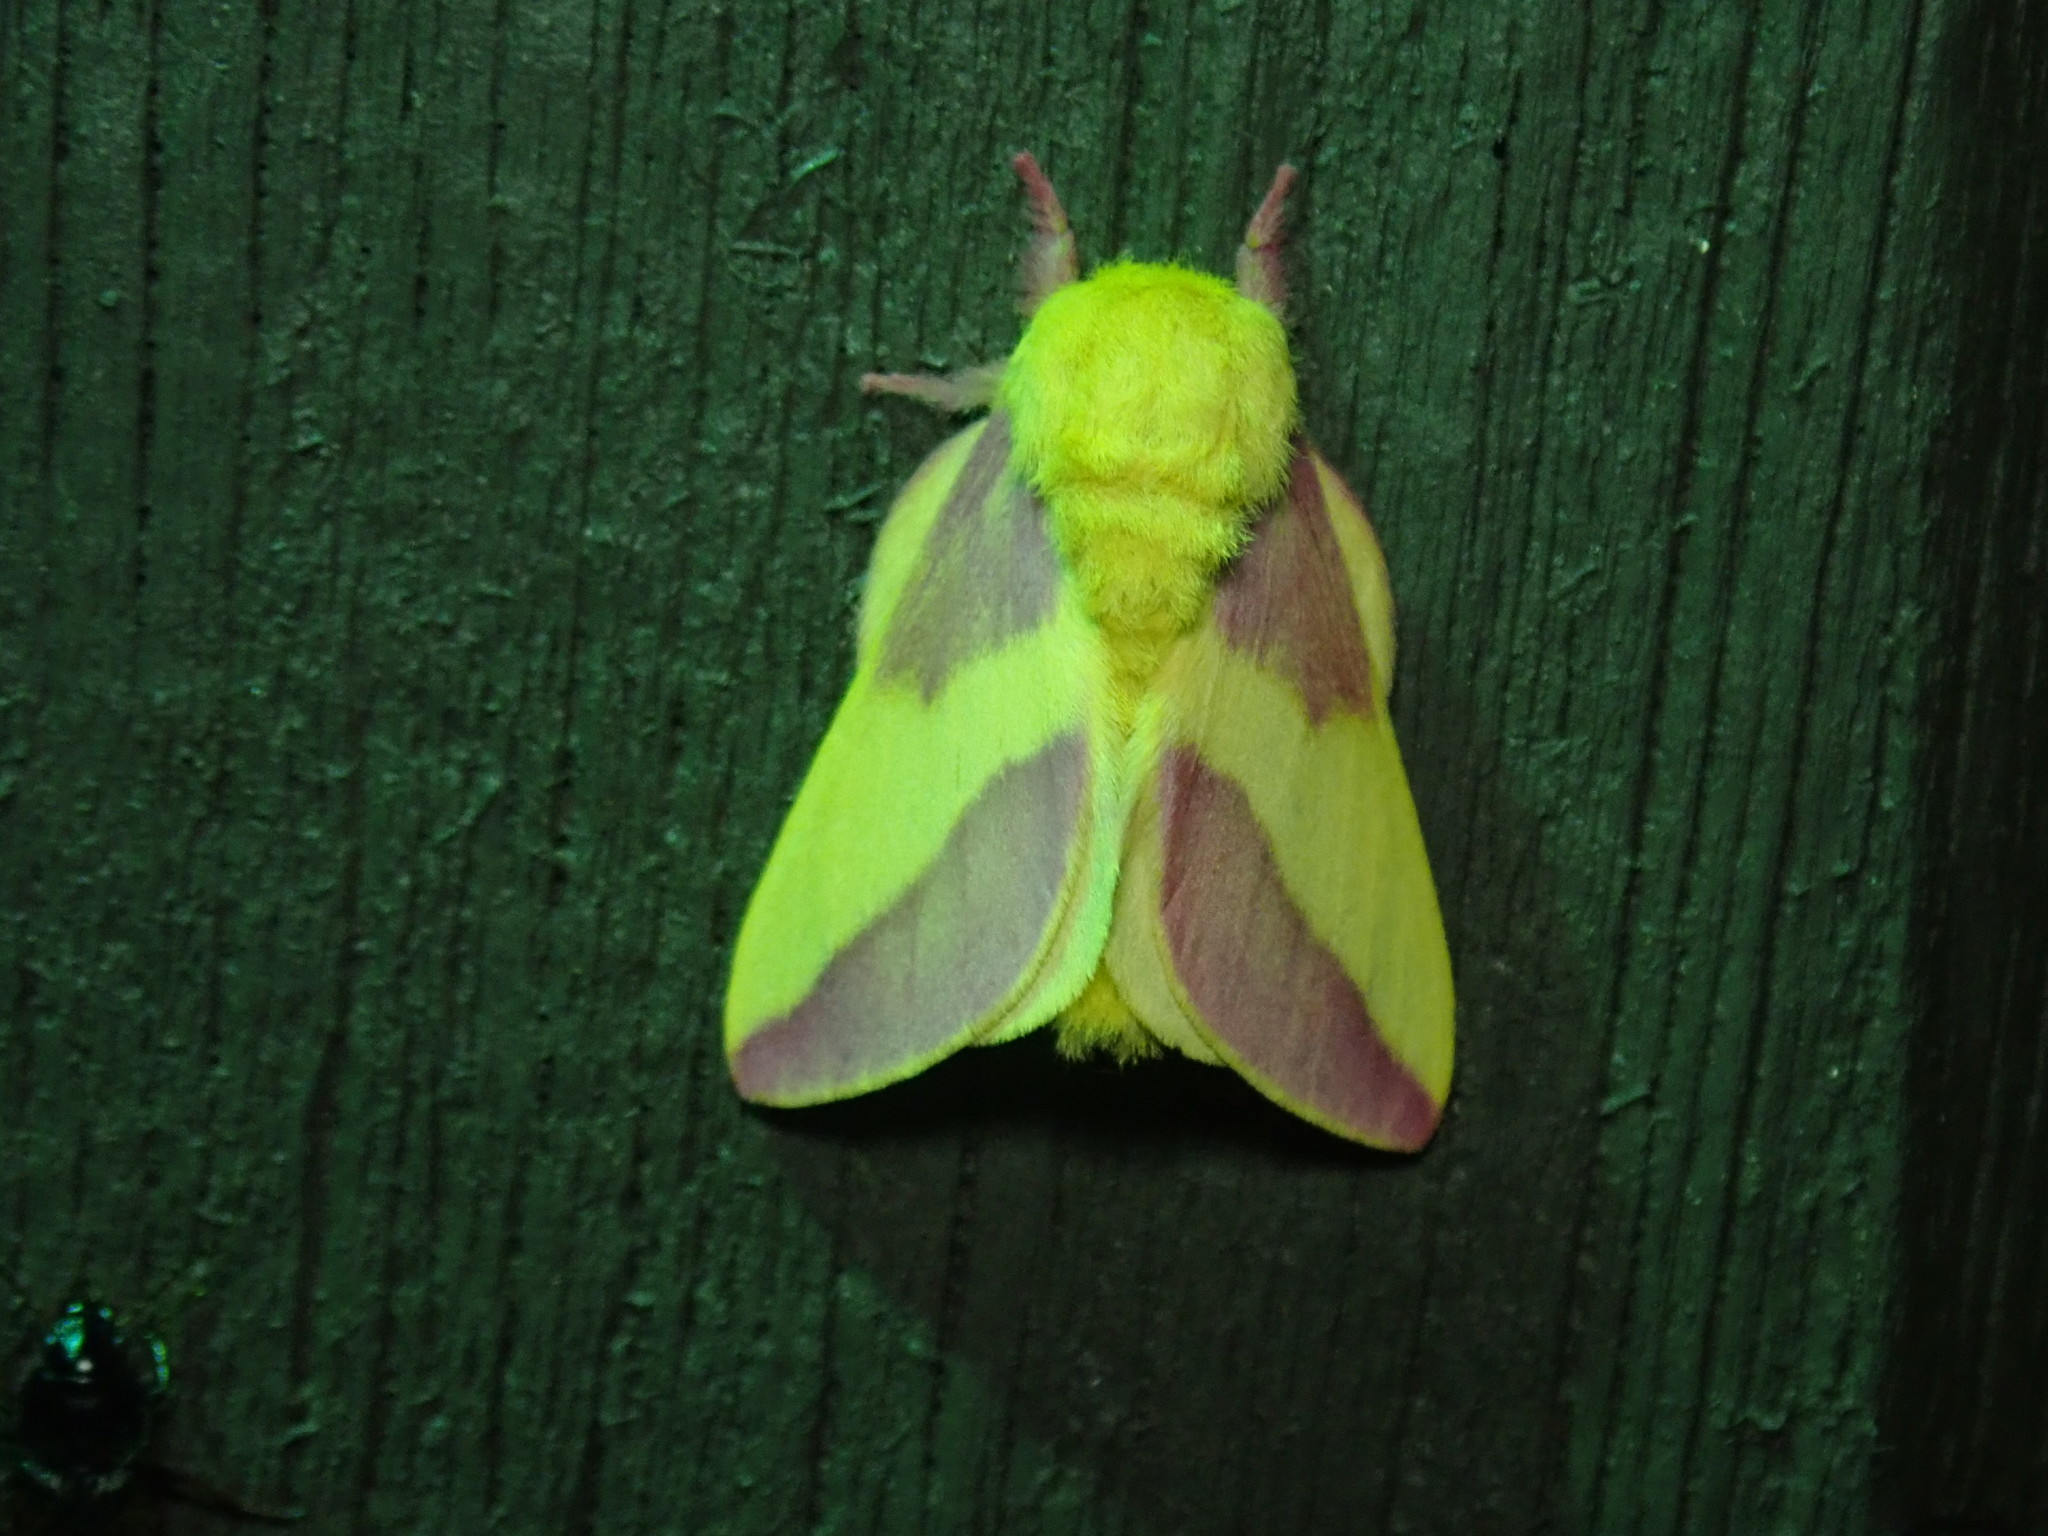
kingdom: Animalia
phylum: Arthropoda
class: Insecta
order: Lepidoptera
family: Saturniidae
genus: Dryocampa
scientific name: Dryocampa rubicunda
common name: Rosy maple moth
